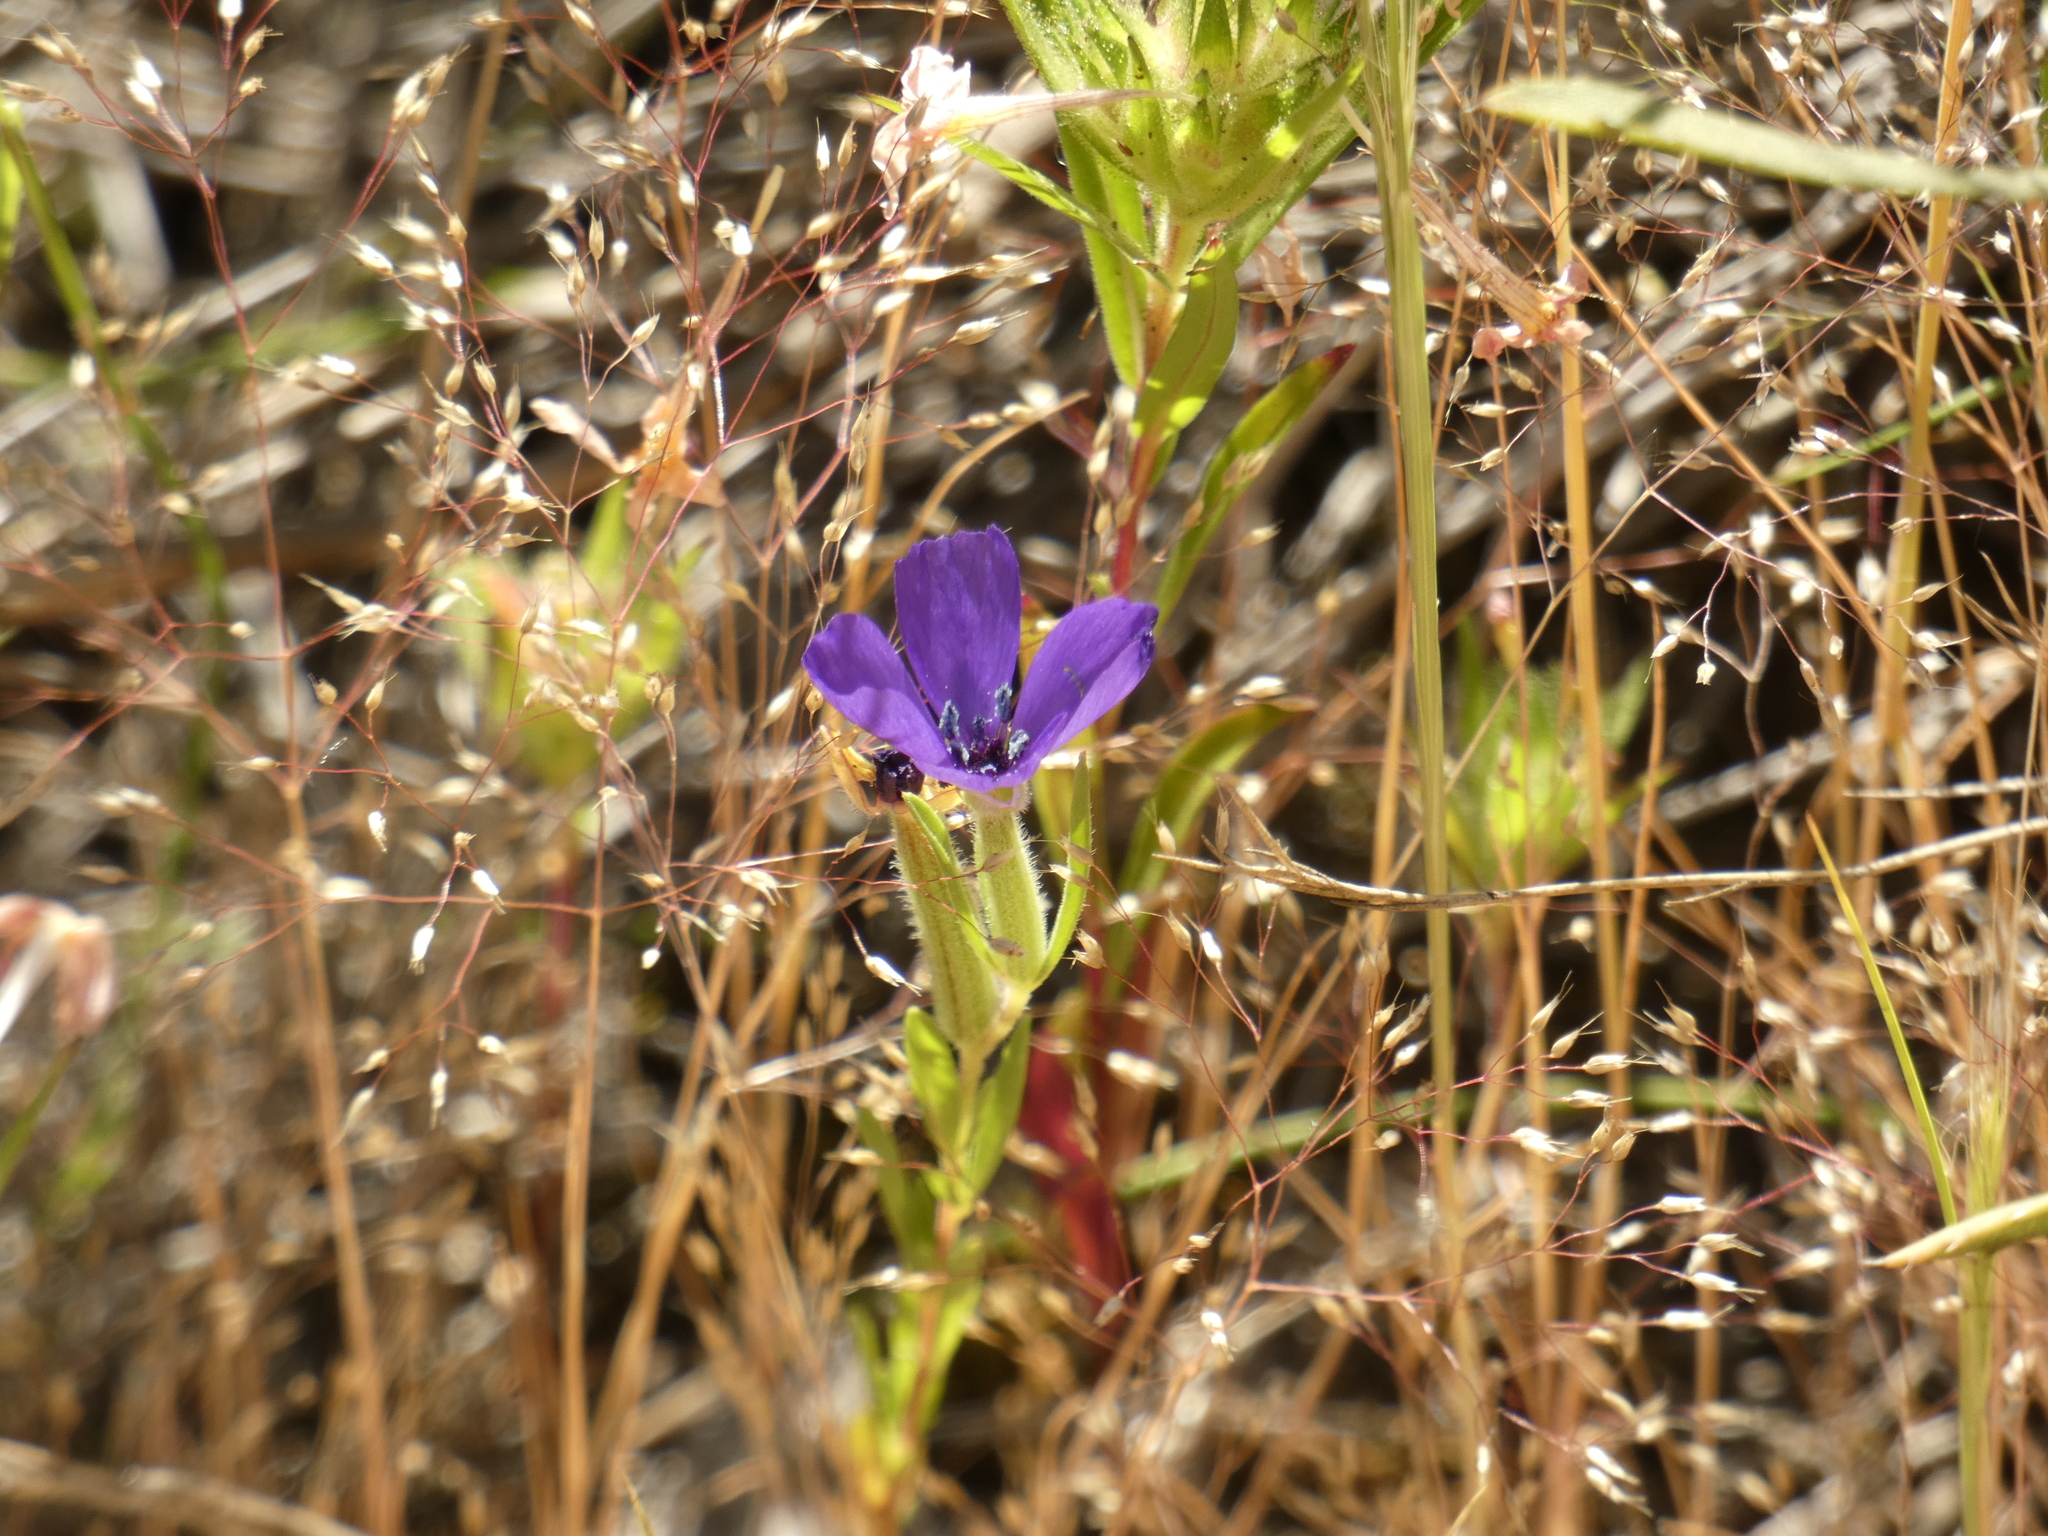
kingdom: Plantae
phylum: Tracheophyta
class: Magnoliopsida
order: Myrtales
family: Onagraceae
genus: Clarkia
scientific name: Clarkia tenella
